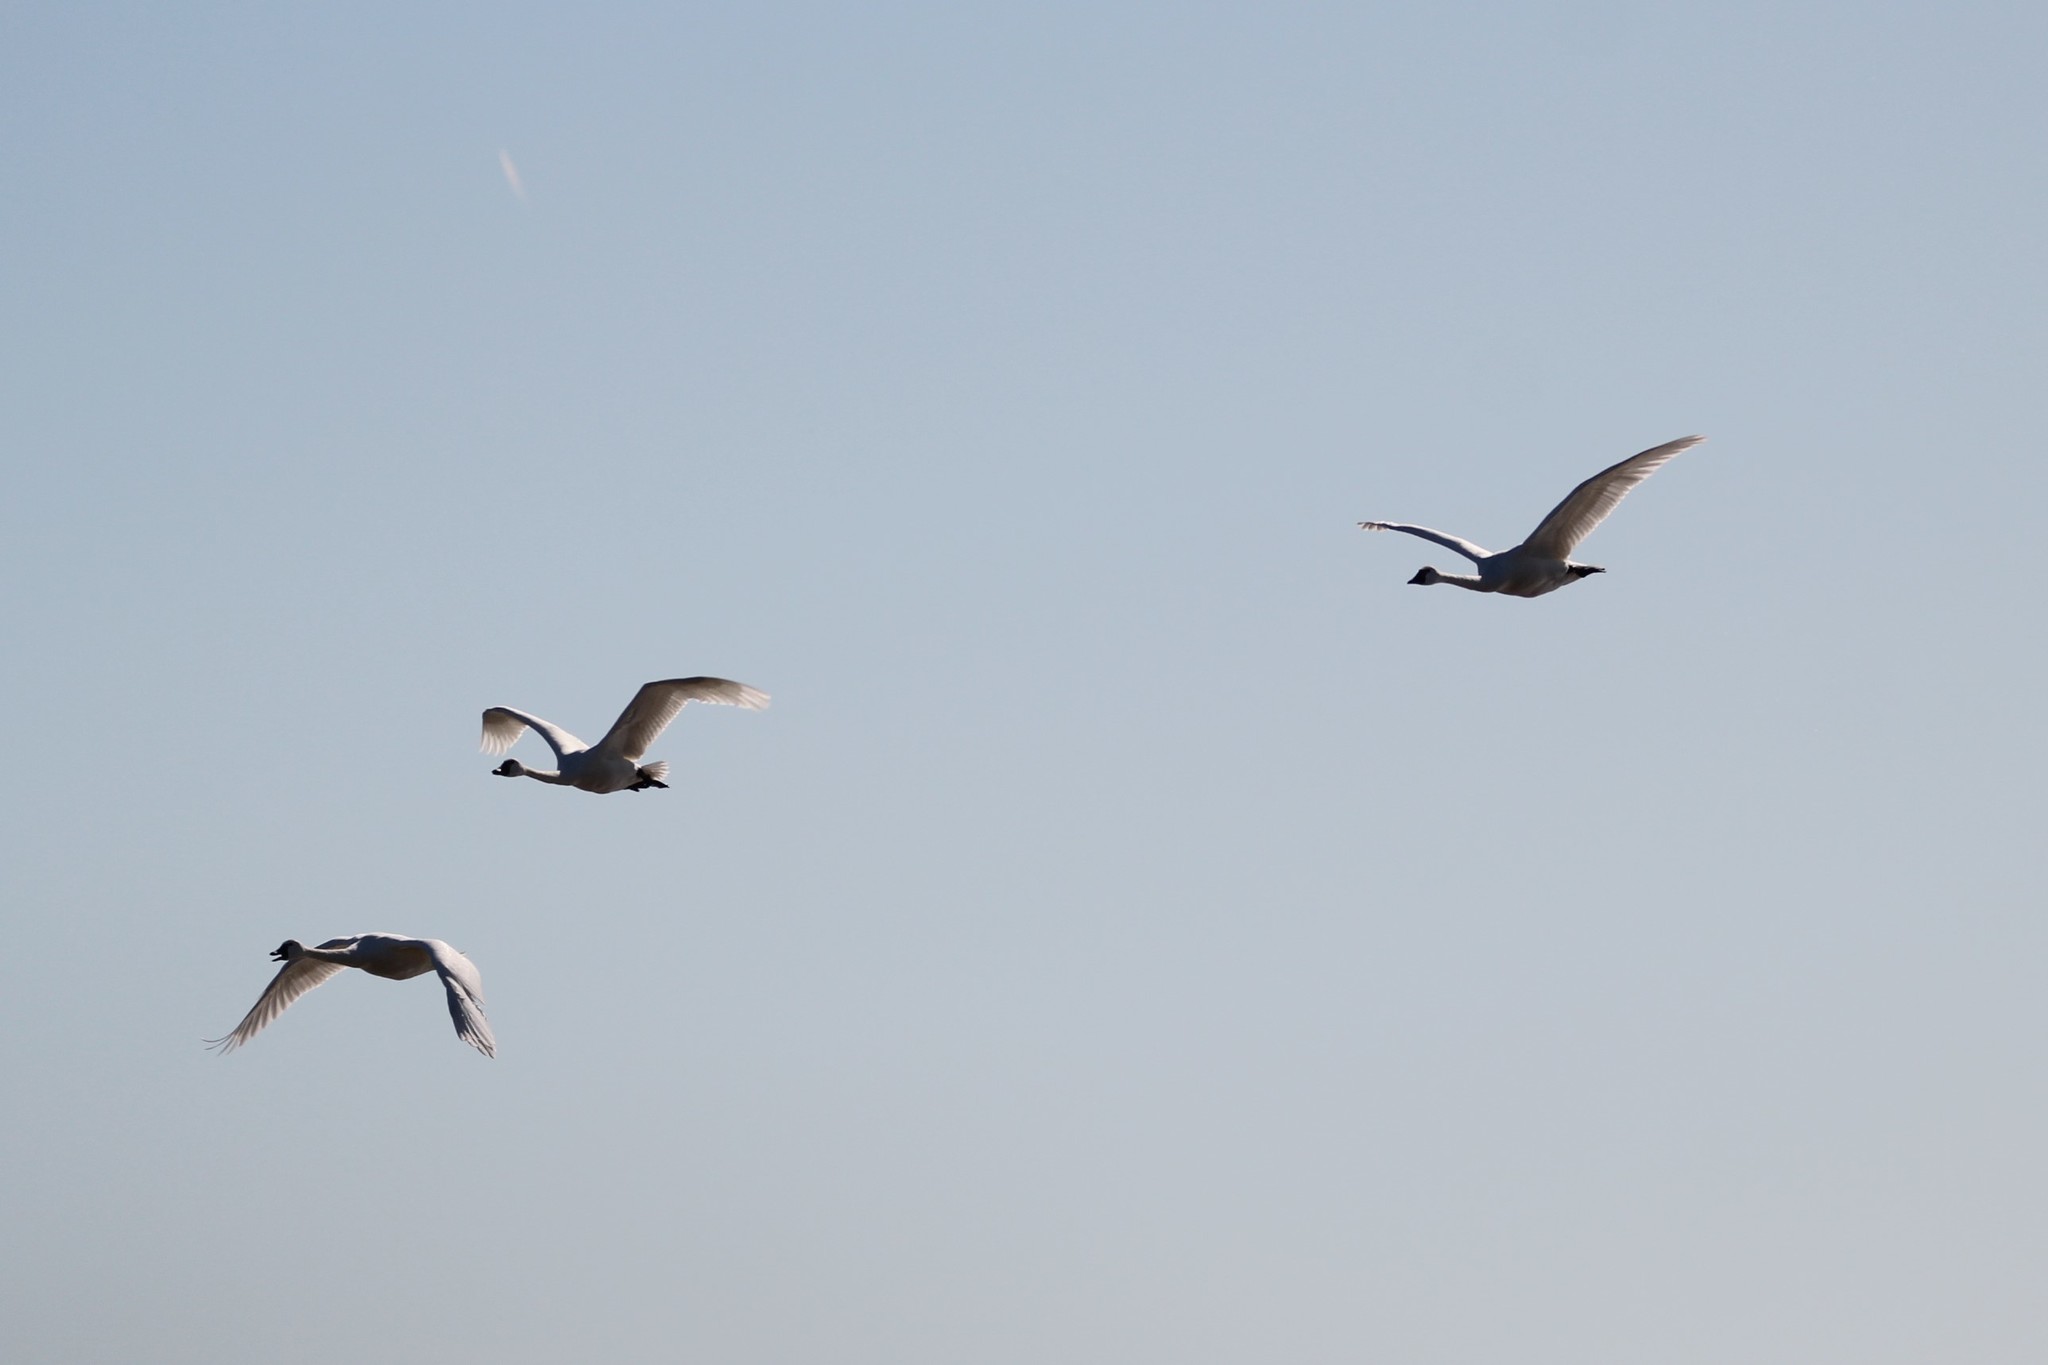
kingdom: Animalia
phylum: Chordata
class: Aves
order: Anseriformes
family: Anatidae
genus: Cygnus
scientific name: Cygnus columbianus
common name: Tundra swan
